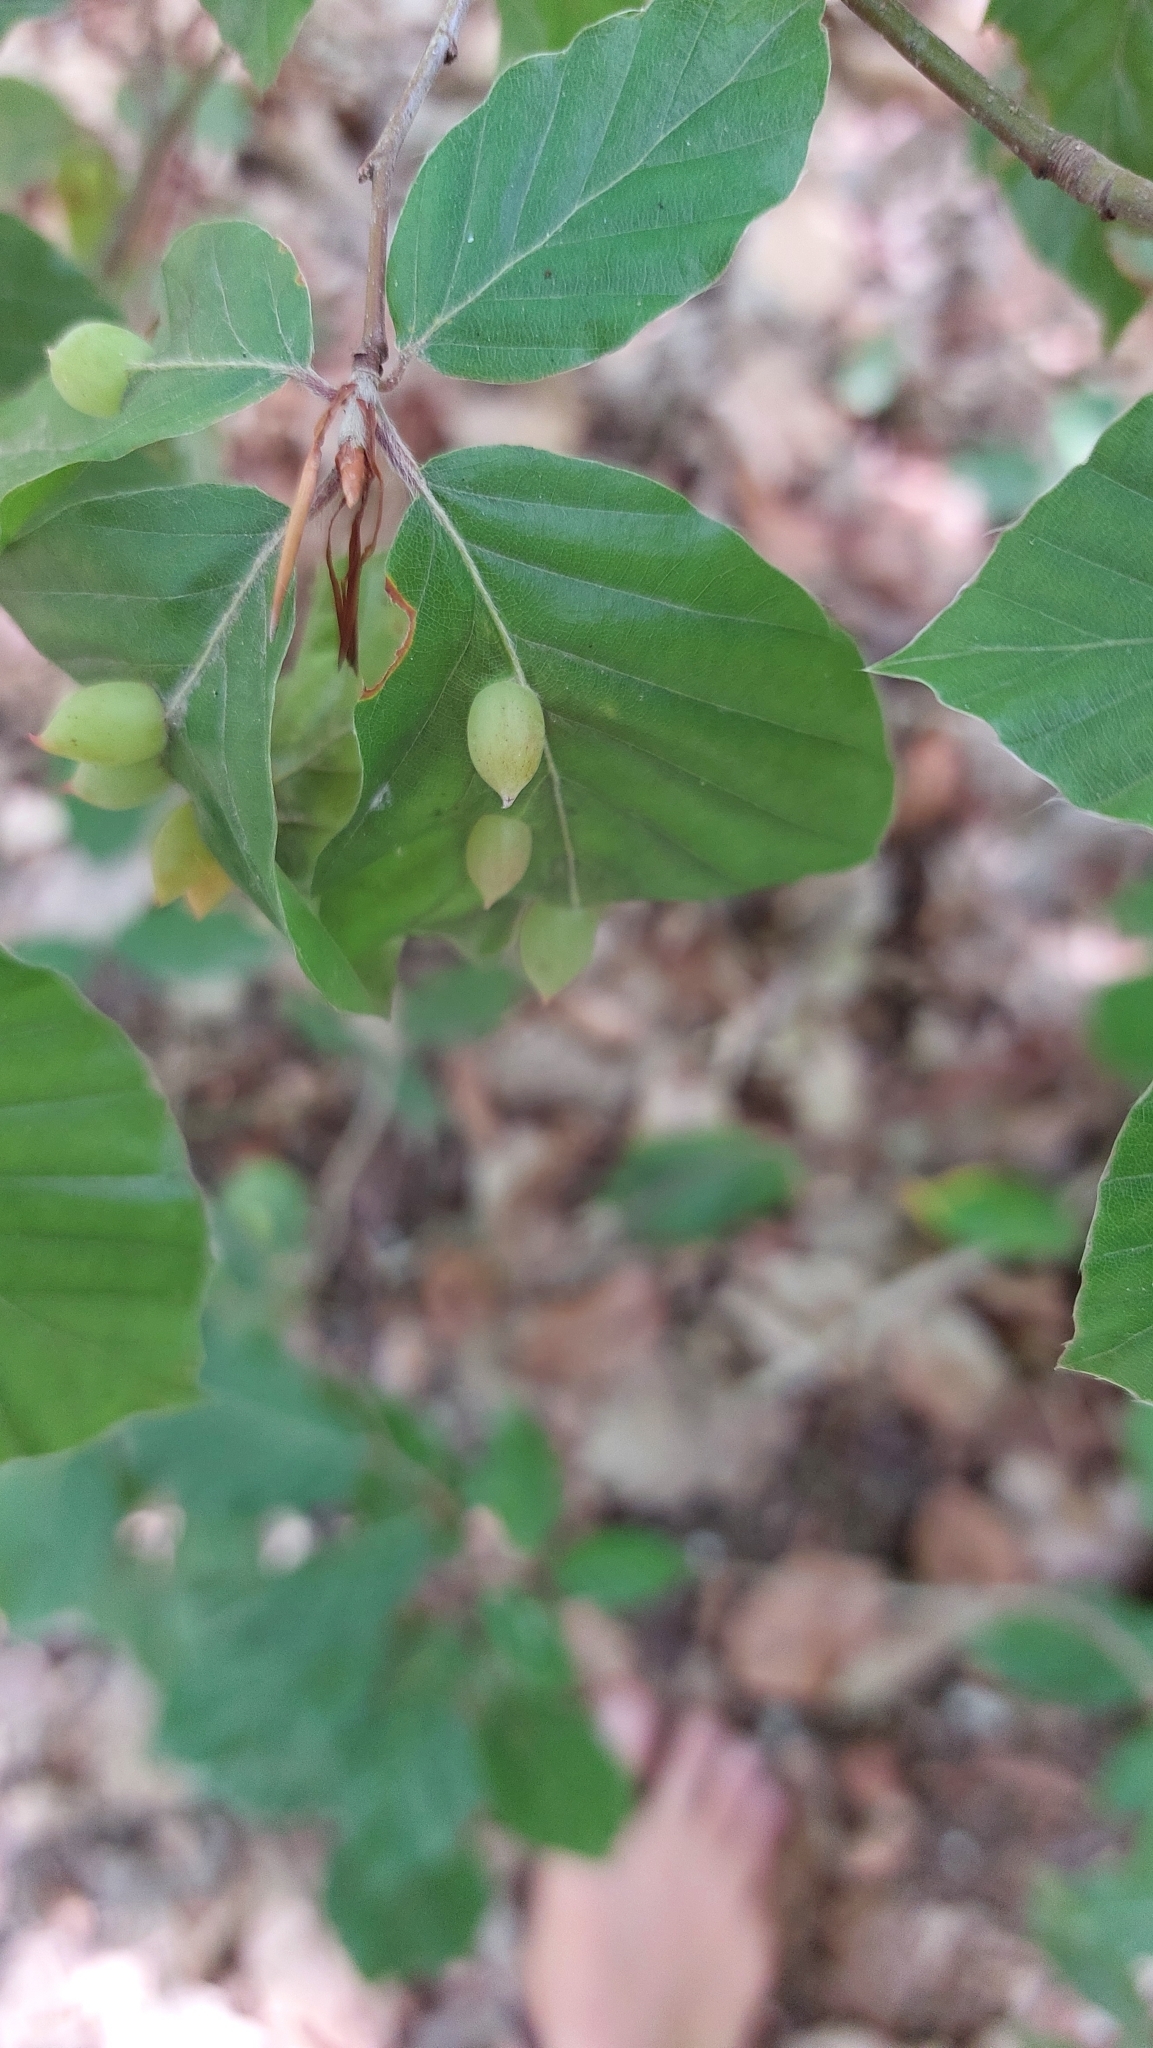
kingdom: Animalia
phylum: Arthropoda
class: Insecta
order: Diptera
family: Cecidomyiidae
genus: Mikiola
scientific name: Mikiola fagi
